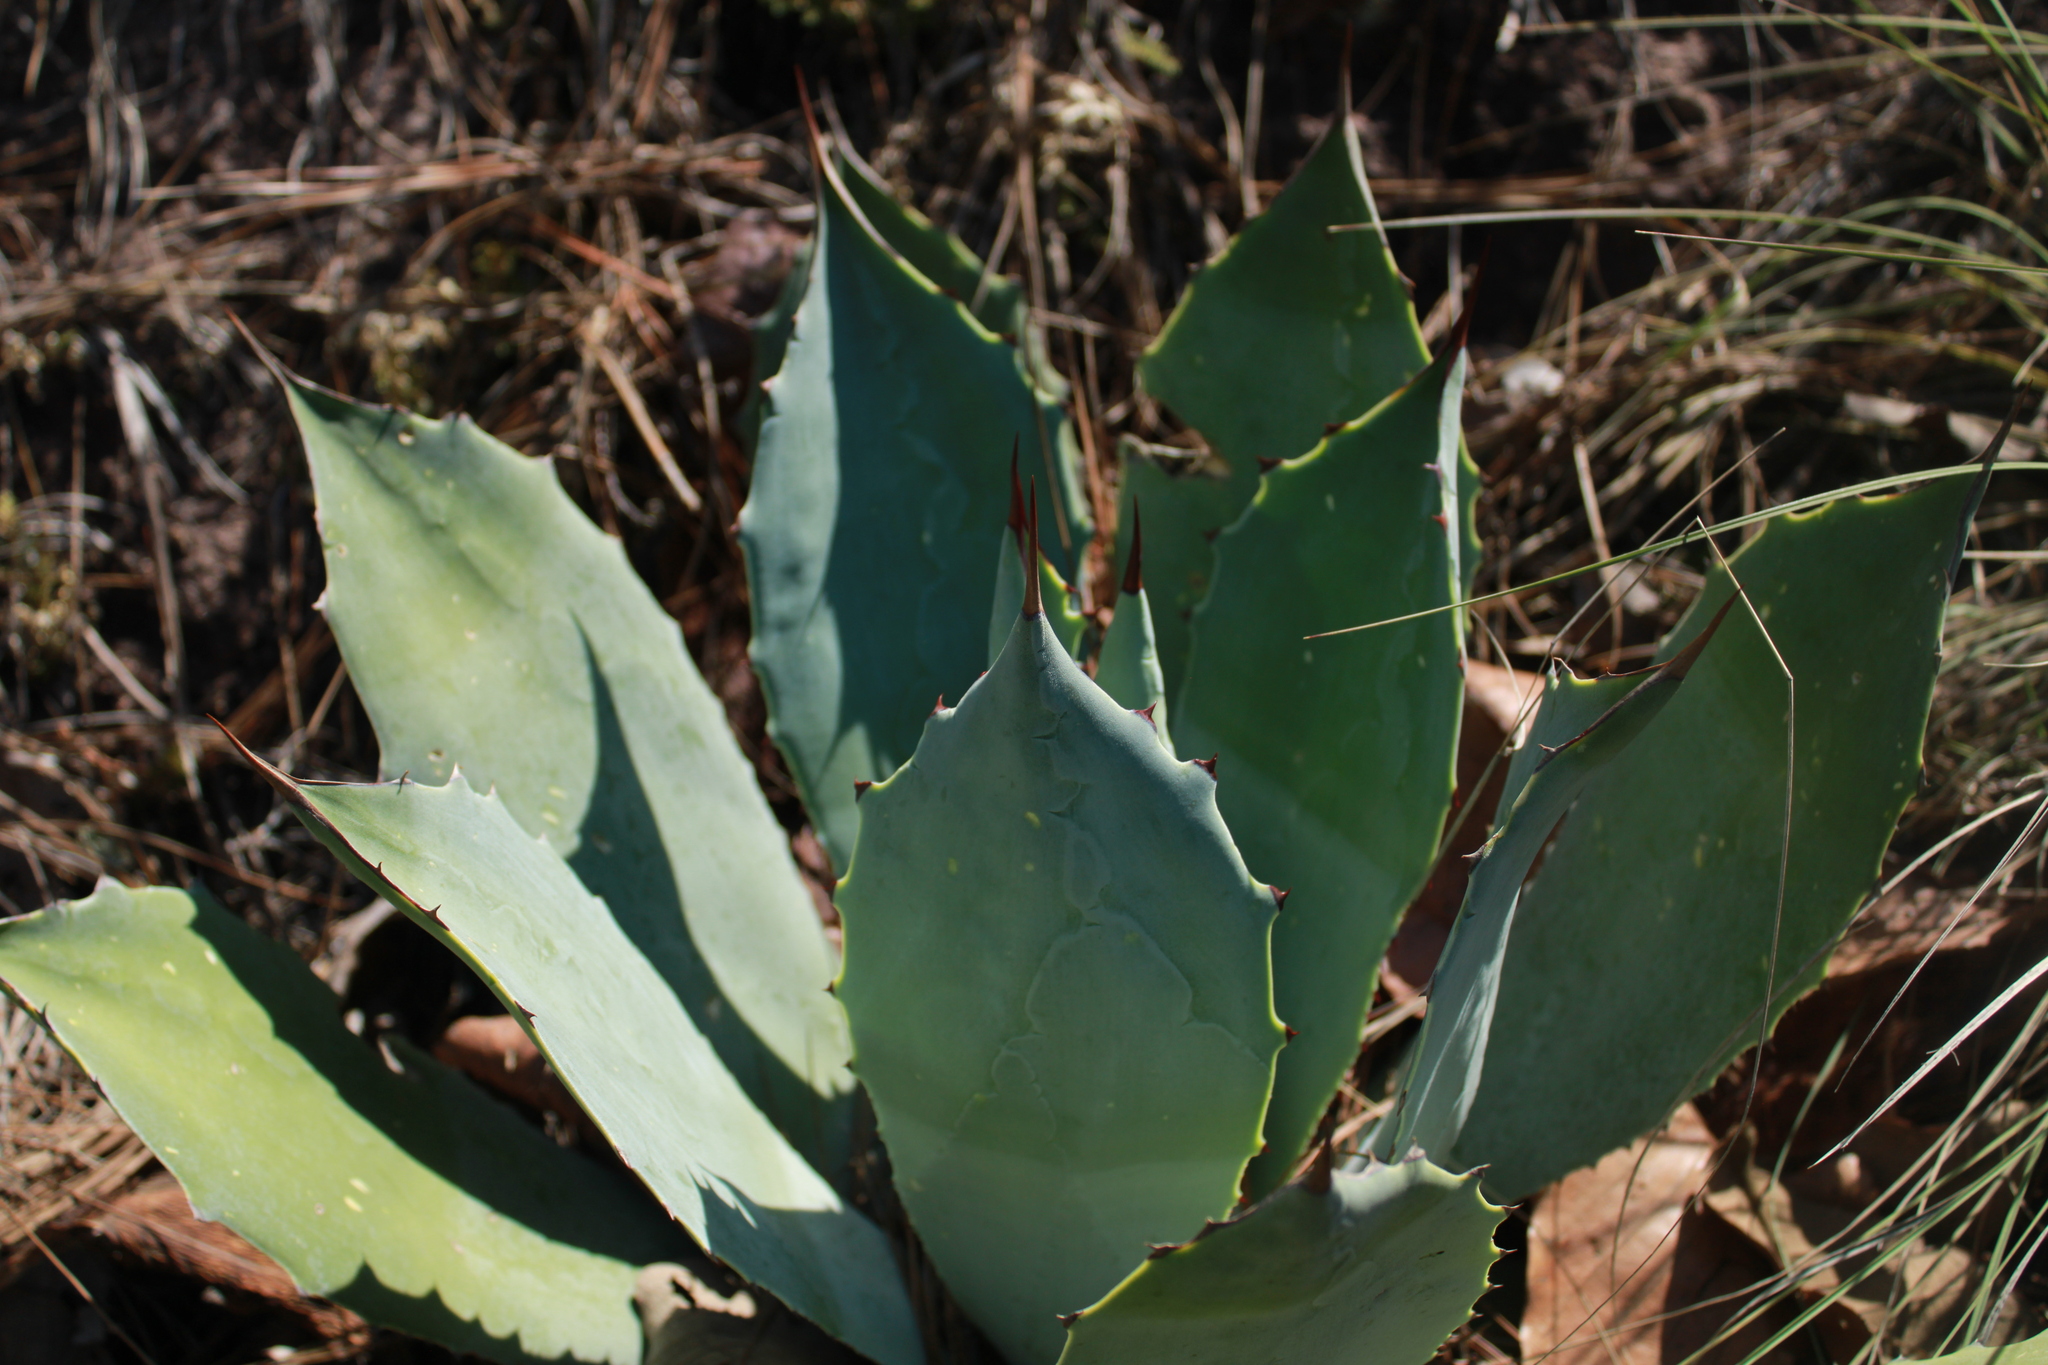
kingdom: Plantae
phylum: Tracheophyta
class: Liliopsida
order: Asparagales
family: Asparagaceae
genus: Agave
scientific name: Agave guadalajarana
